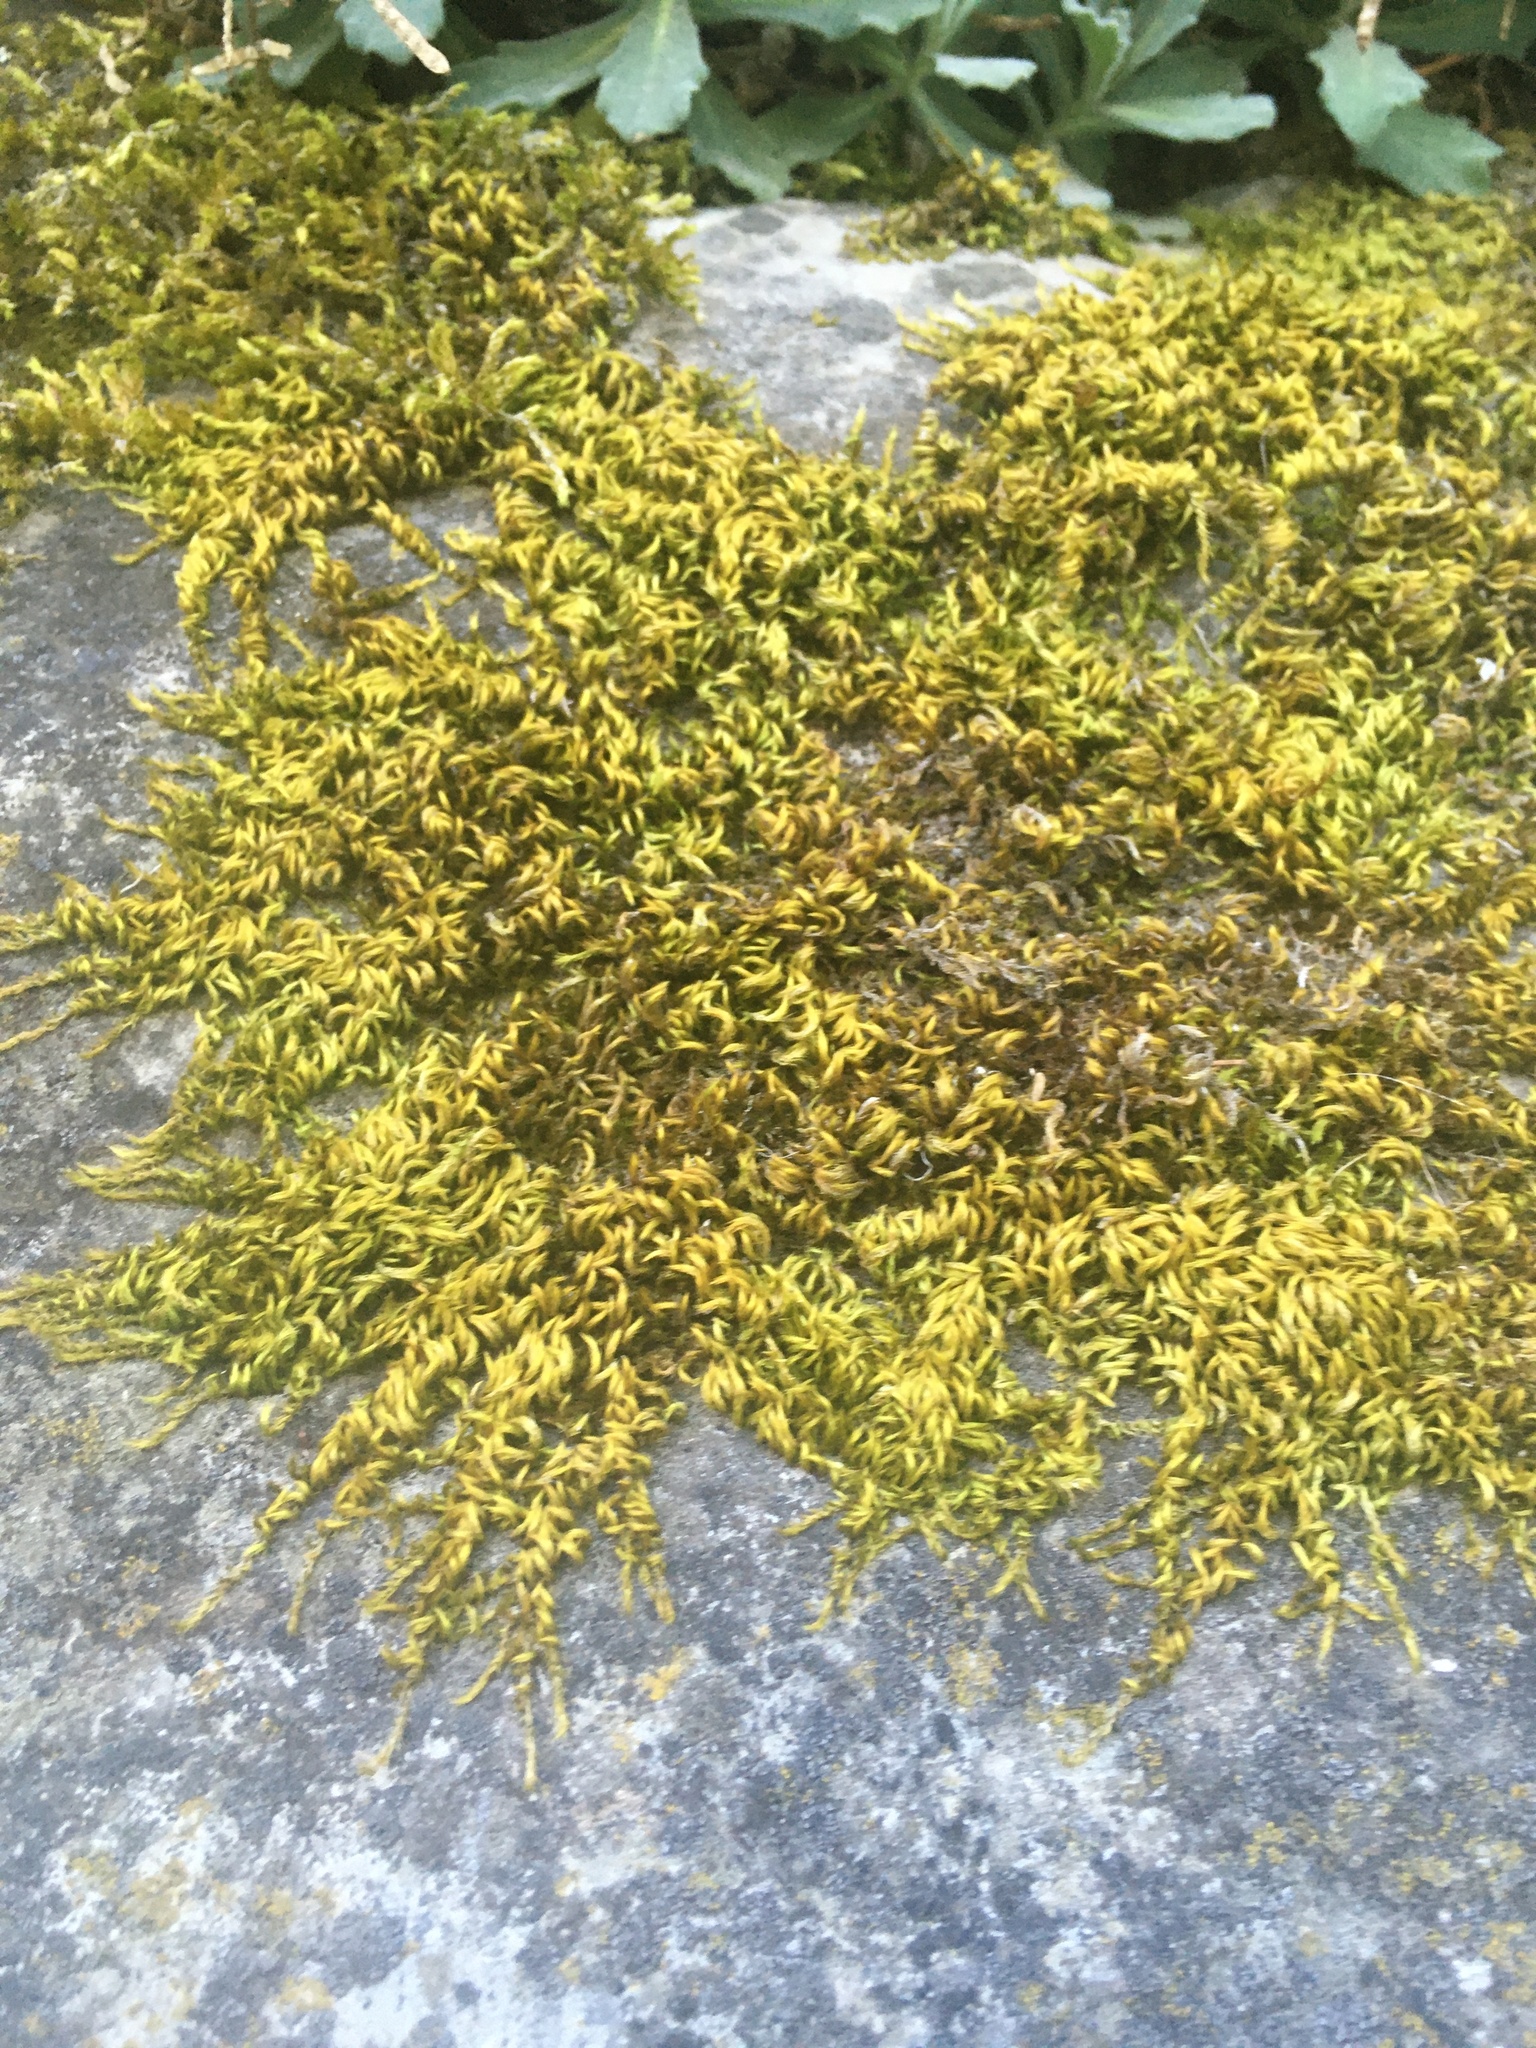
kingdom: Plantae
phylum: Bryophyta
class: Bryopsida
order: Hypnales
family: Brachytheciaceae
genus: Homalothecium
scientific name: Homalothecium sericeum
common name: Silky wall feather-moss
